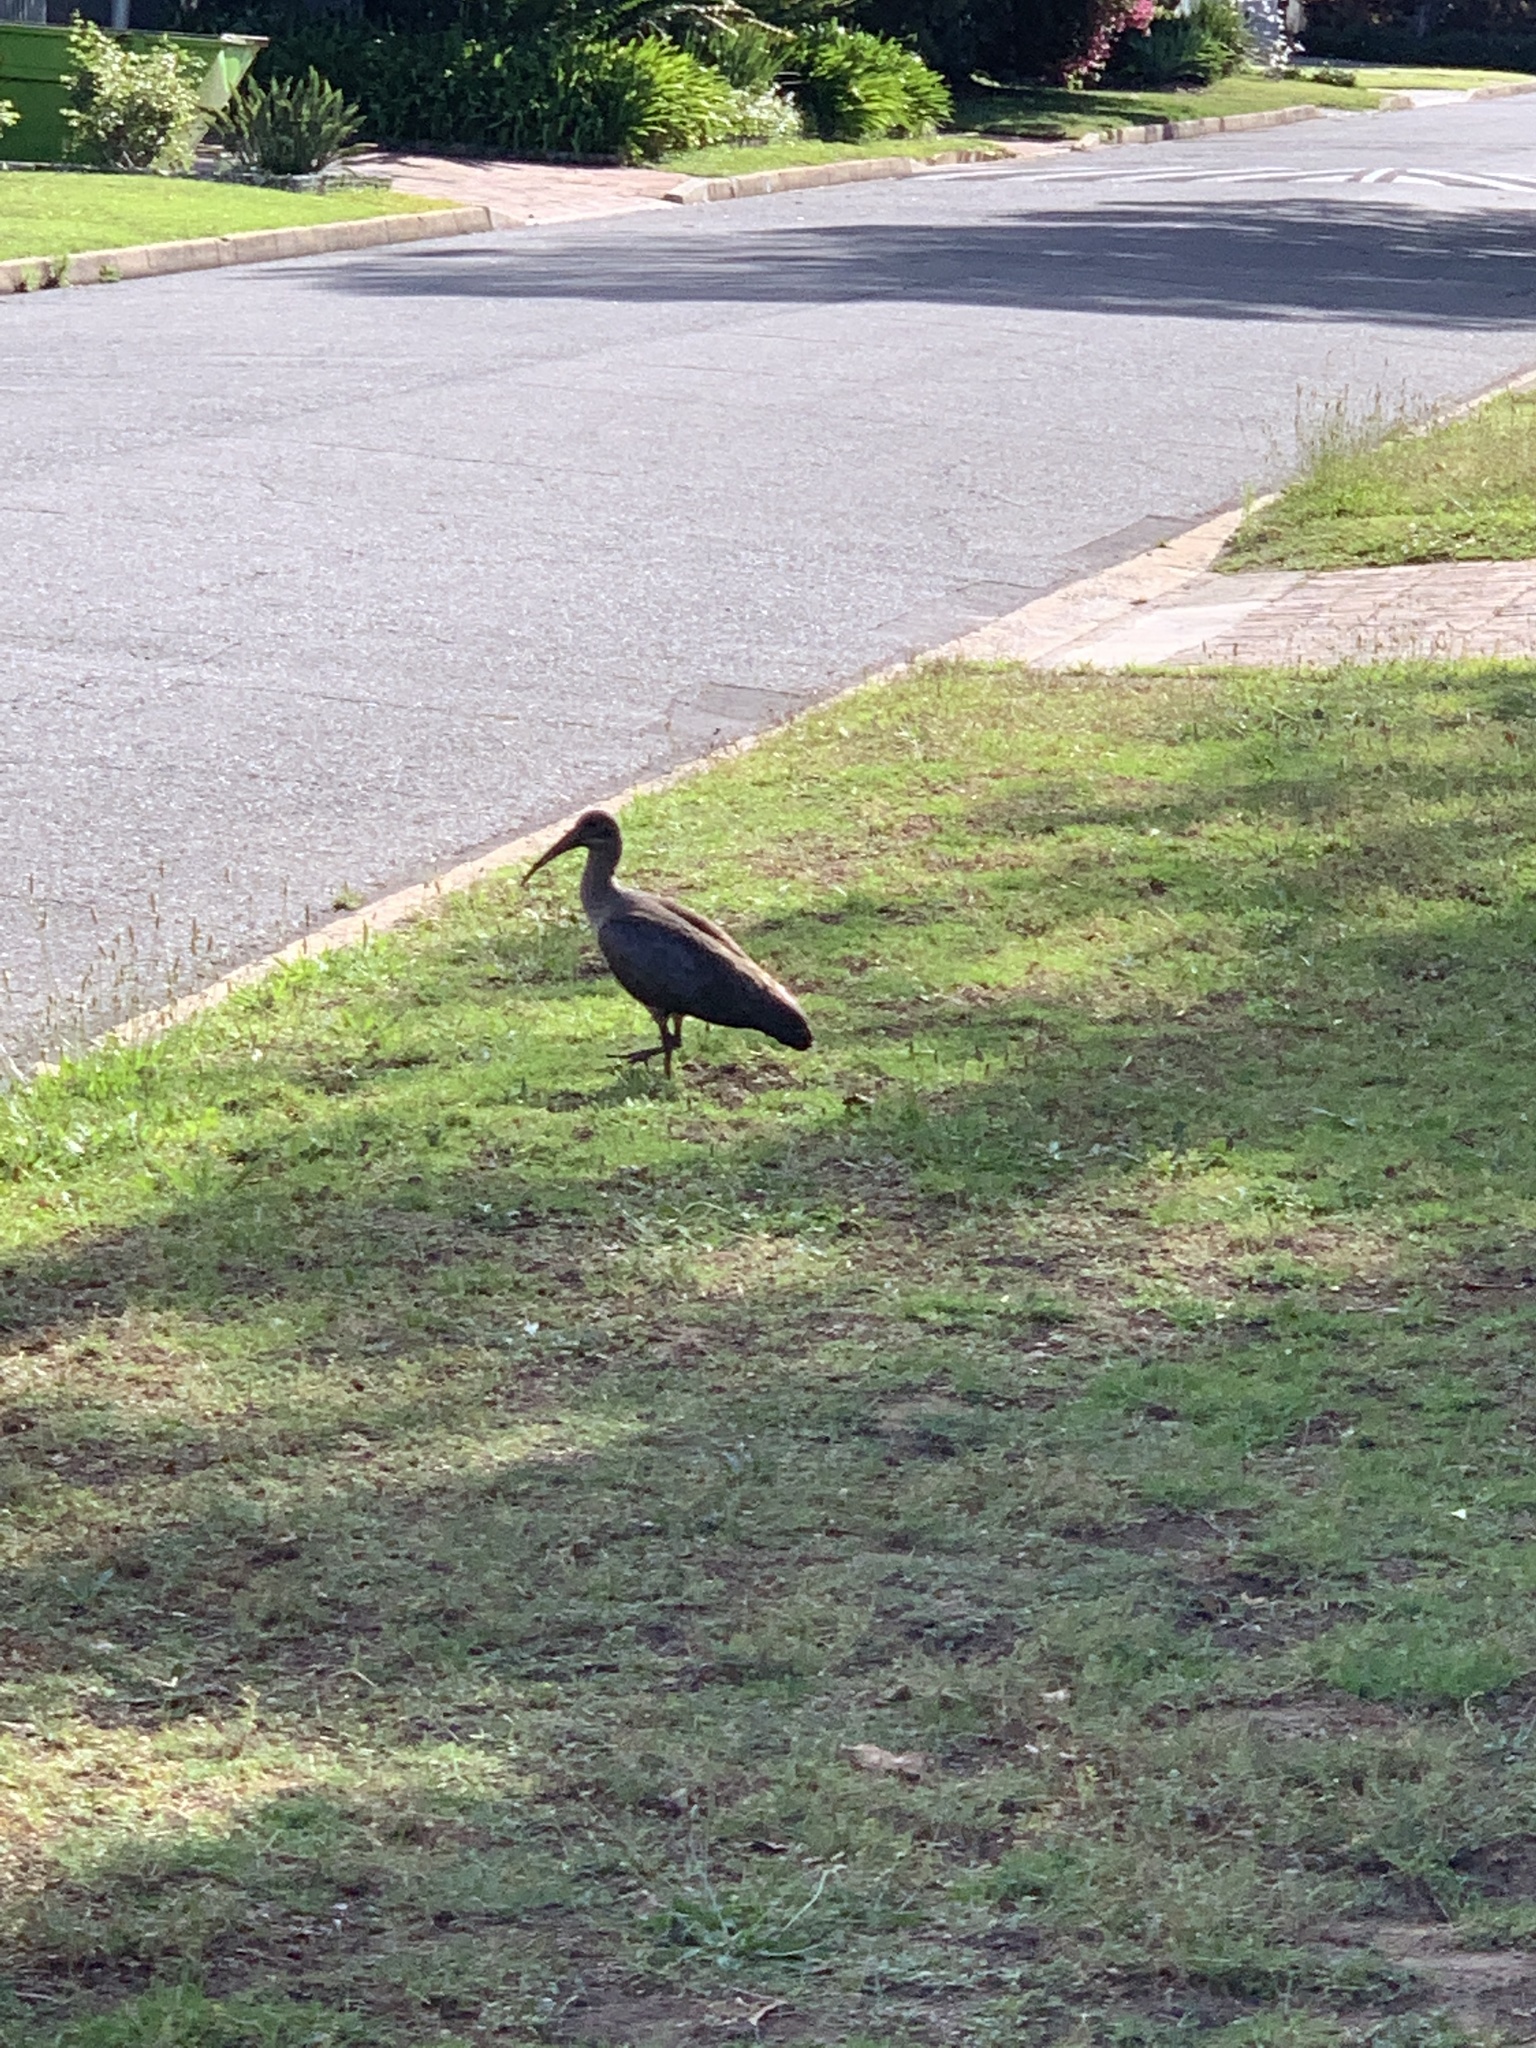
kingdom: Animalia
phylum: Chordata
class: Aves
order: Pelecaniformes
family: Threskiornithidae
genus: Bostrychia
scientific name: Bostrychia hagedash
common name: Hadada ibis
